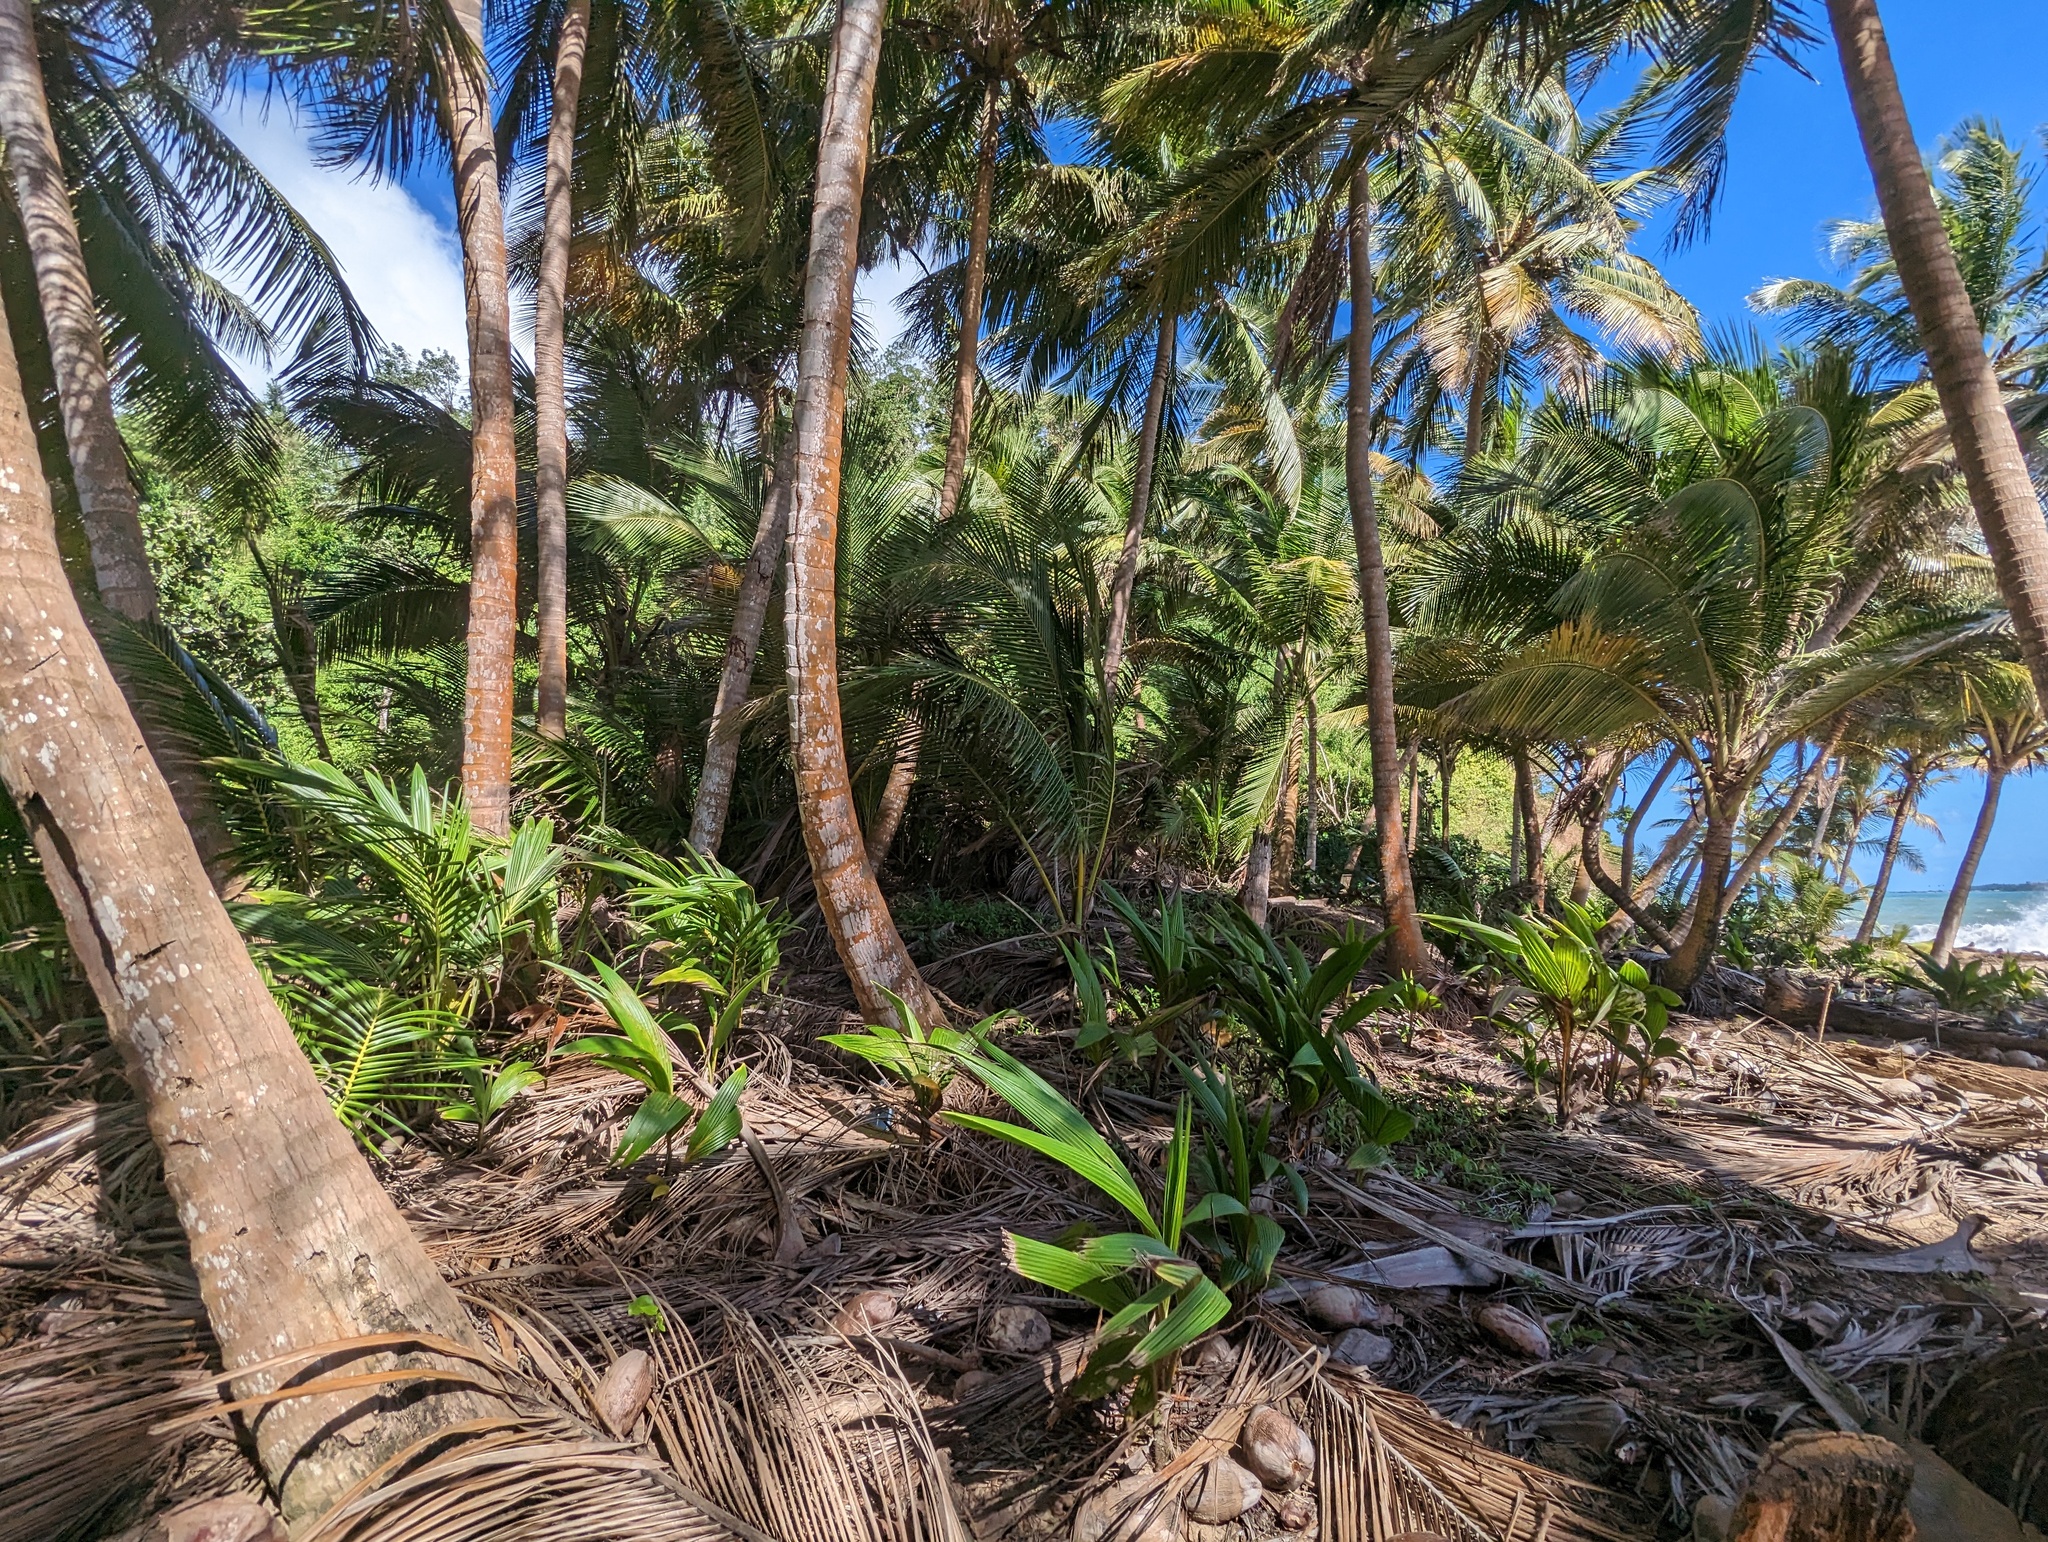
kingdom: Plantae
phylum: Tracheophyta
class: Liliopsida
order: Arecales
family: Arecaceae
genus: Cocos
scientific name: Cocos nucifera
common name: Coconut palm
